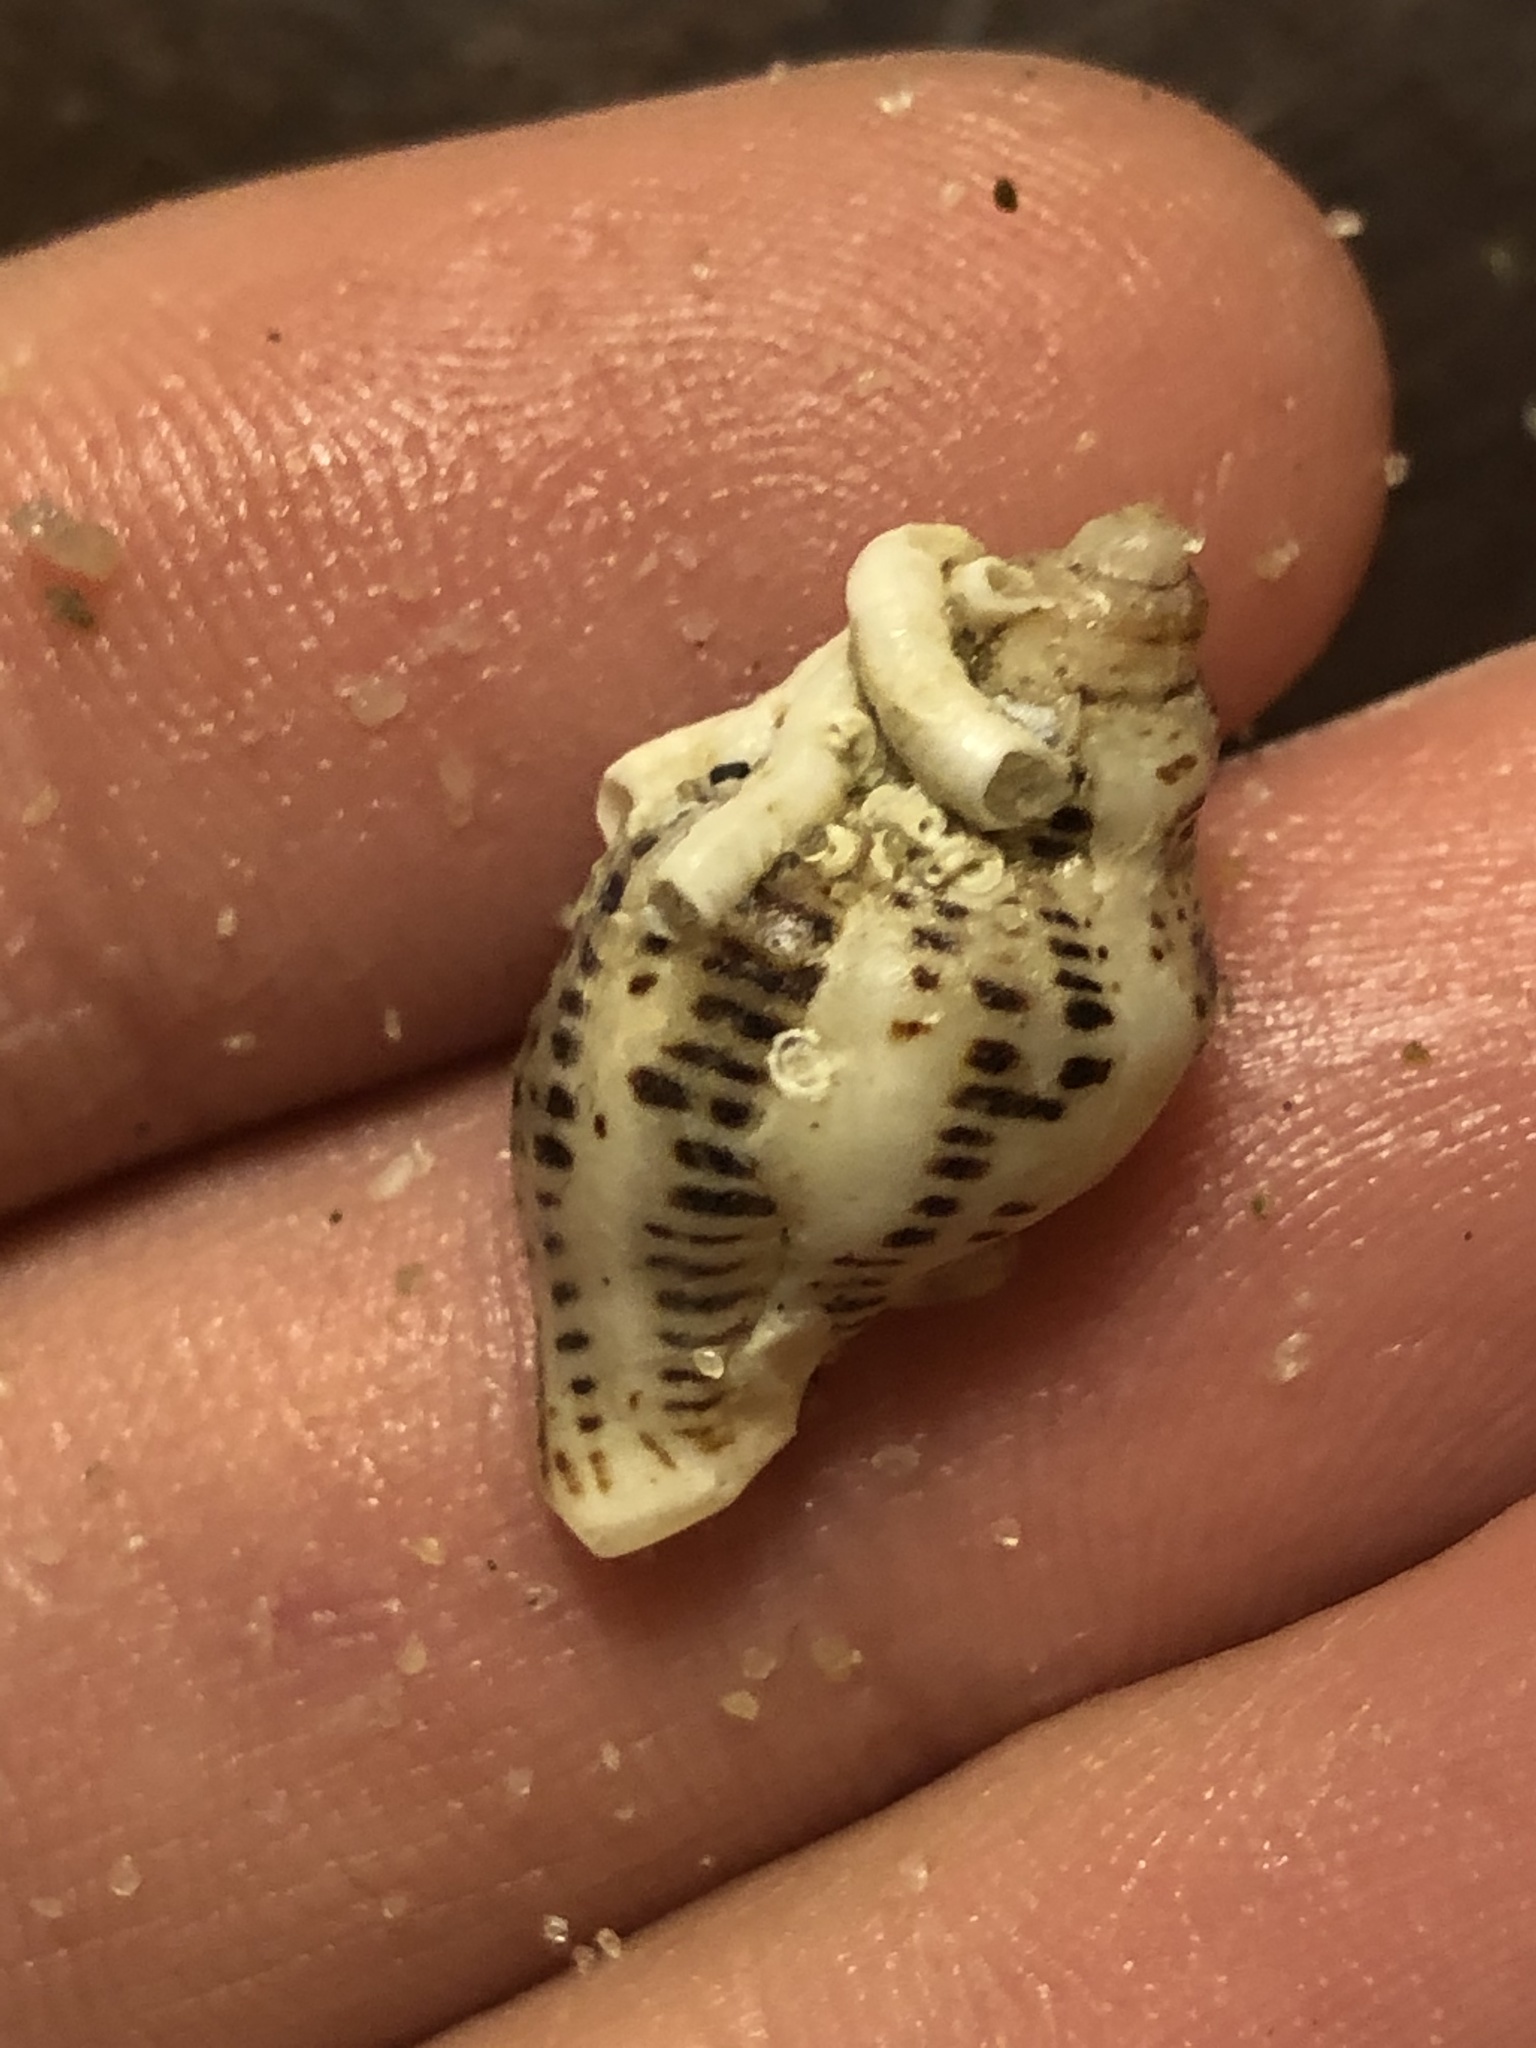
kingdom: Animalia
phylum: Mollusca
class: Gastropoda
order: Neogastropoda
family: Muricidae
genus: Acanthinucella
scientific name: Acanthinucella spirata
